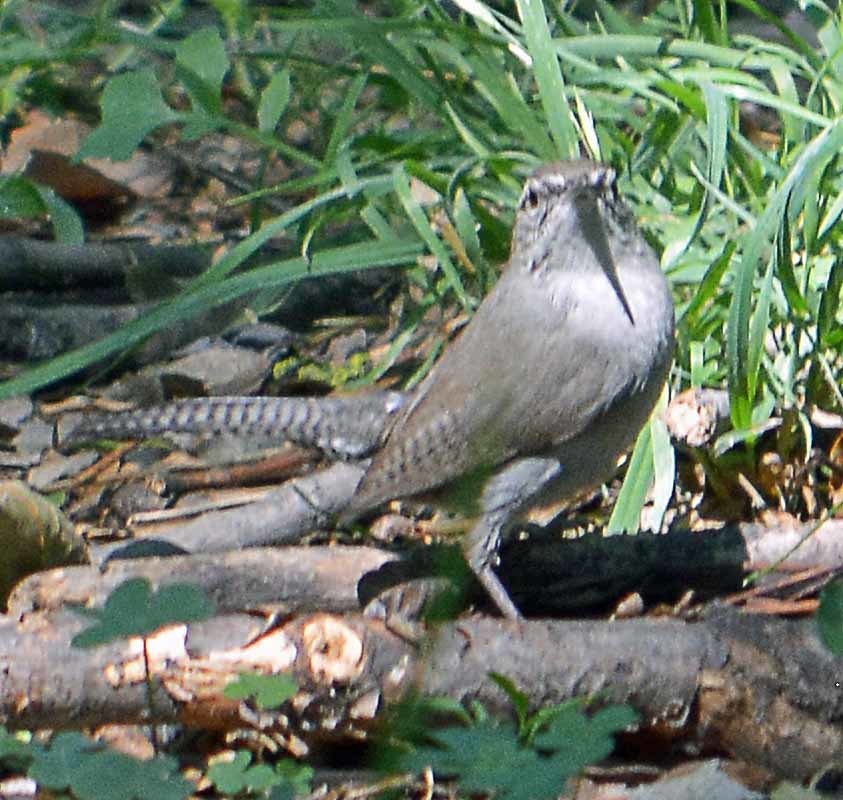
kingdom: Animalia
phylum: Chordata
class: Aves
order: Passeriformes
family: Troglodytidae
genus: Thryomanes
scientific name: Thryomanes bewickii
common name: Bewick's wren
